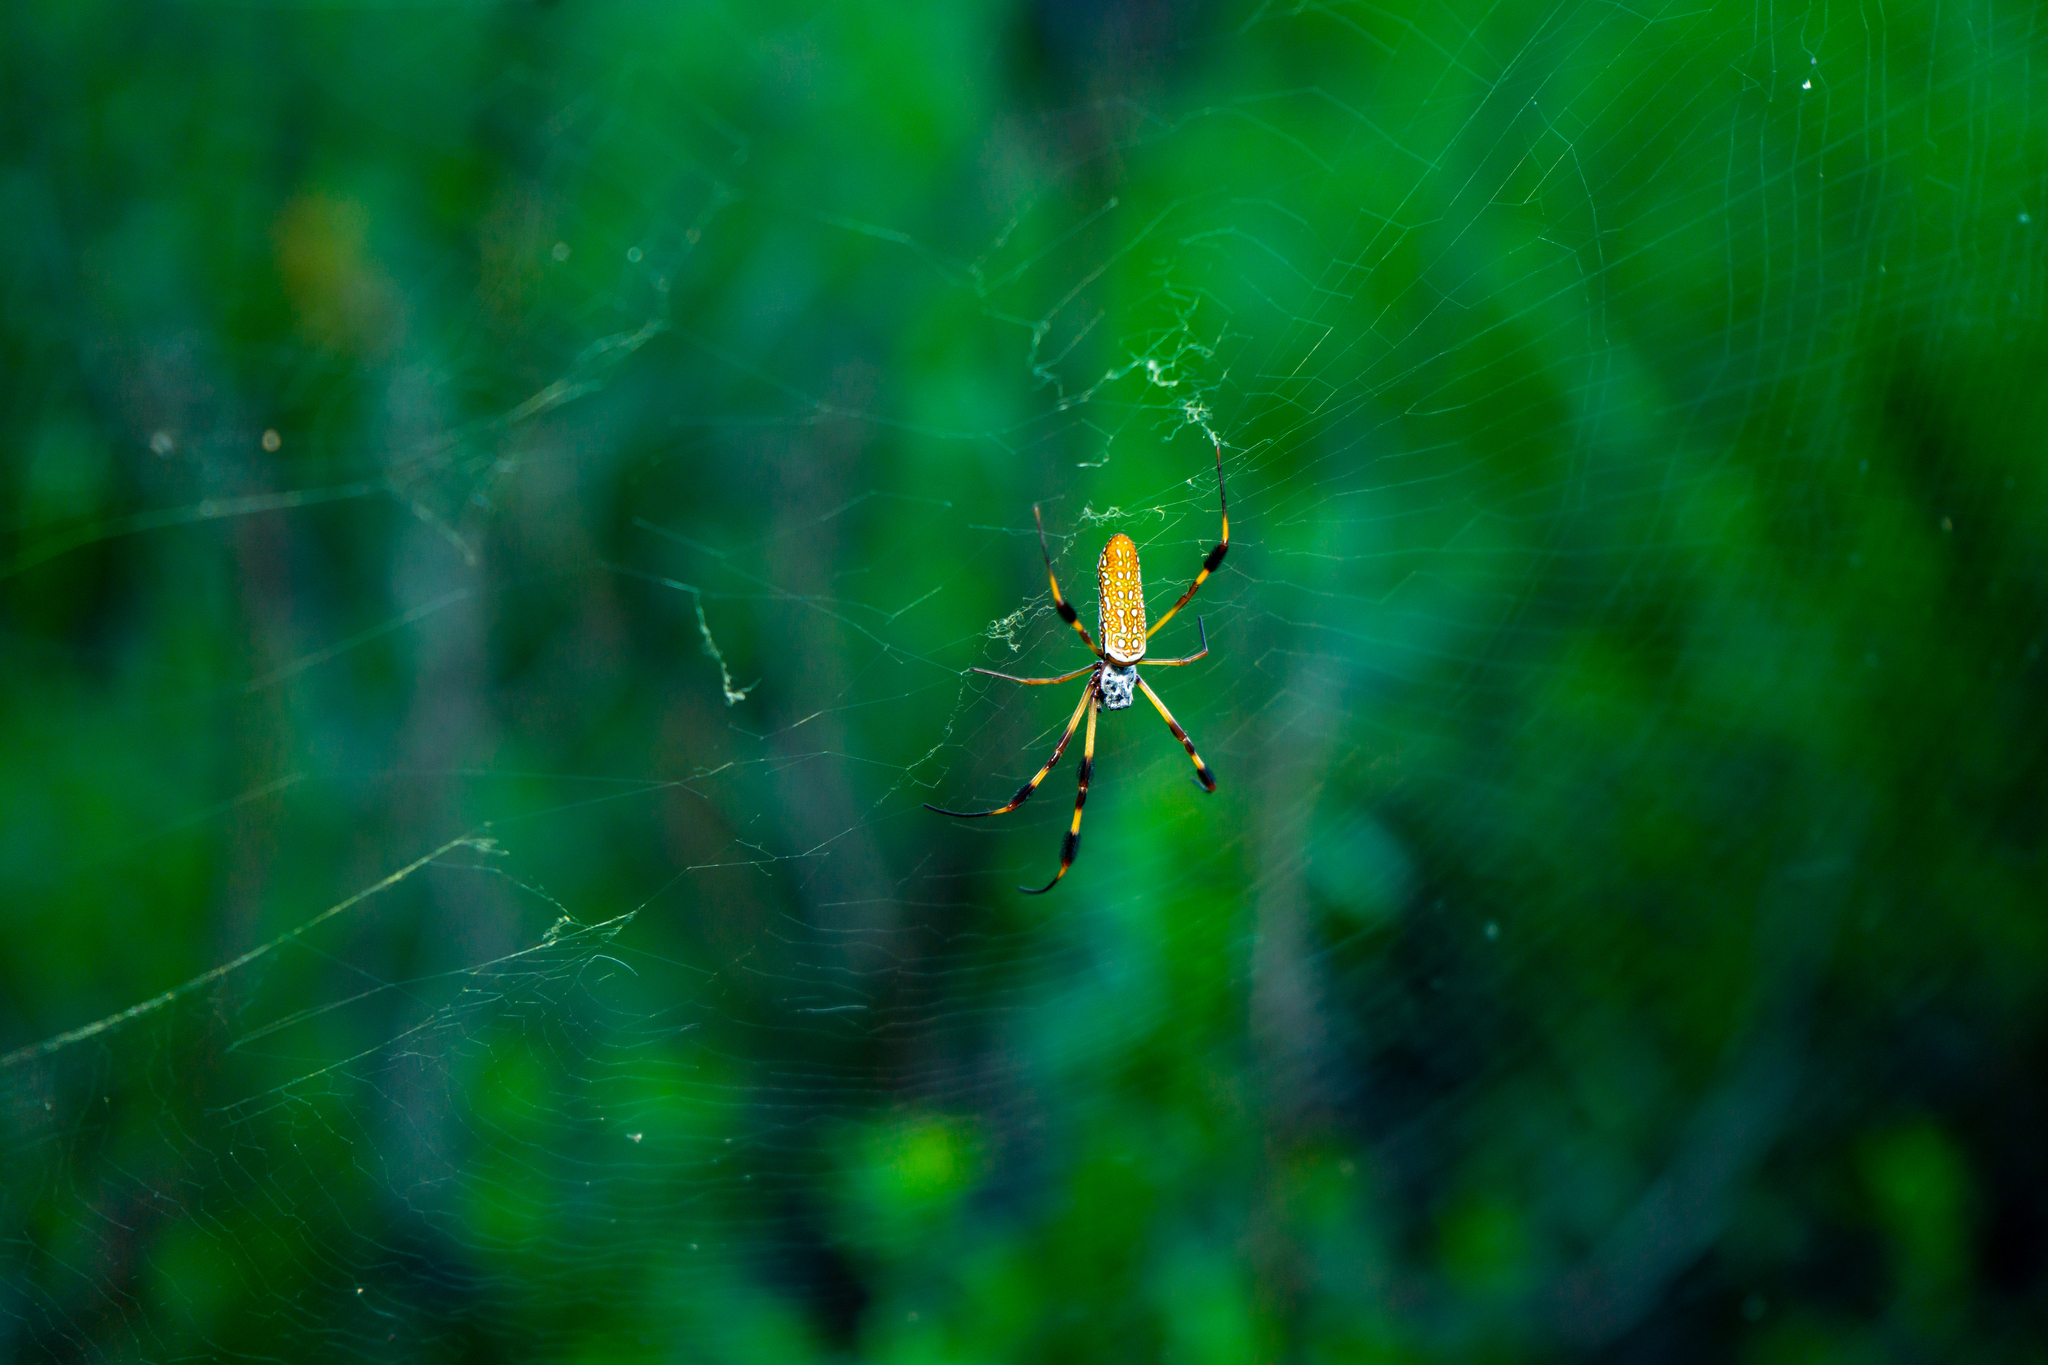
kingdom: Animalia
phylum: Arthropoda
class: Arachnida
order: Araneae
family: Araneidae
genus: Trichonephila
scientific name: Trichonephila clavipes
